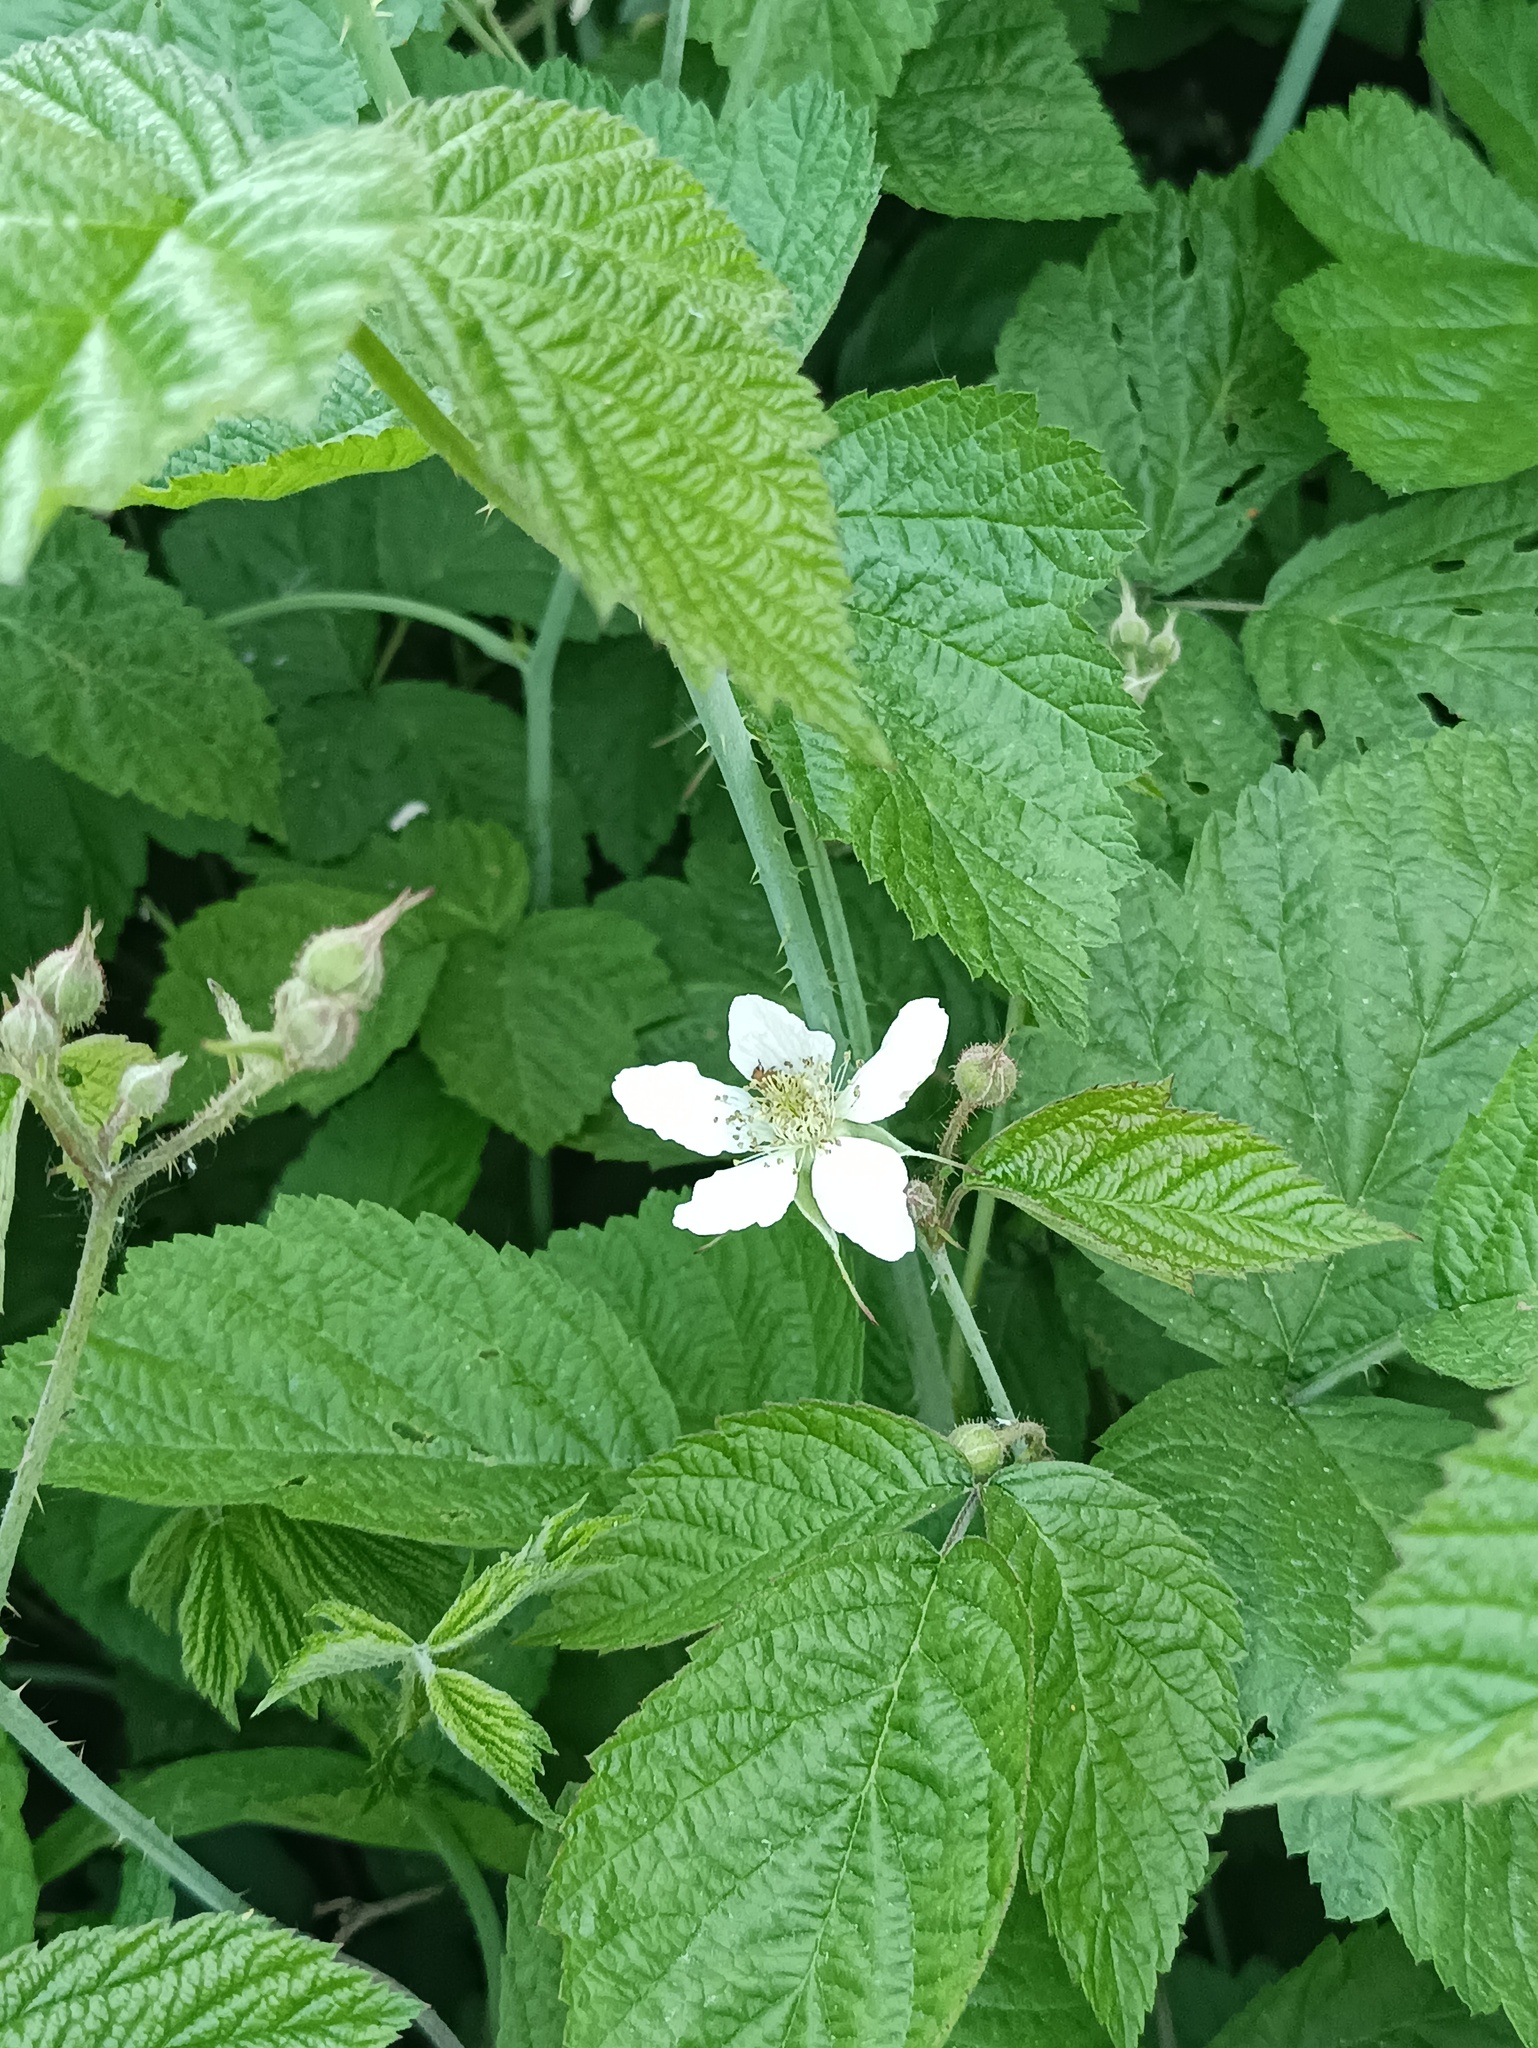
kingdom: Plantae
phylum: Tracheophyta
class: Magnoliopsida
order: Rosales
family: Rosaceae
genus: Rubus
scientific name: Rubus caesius
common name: Dewberry
